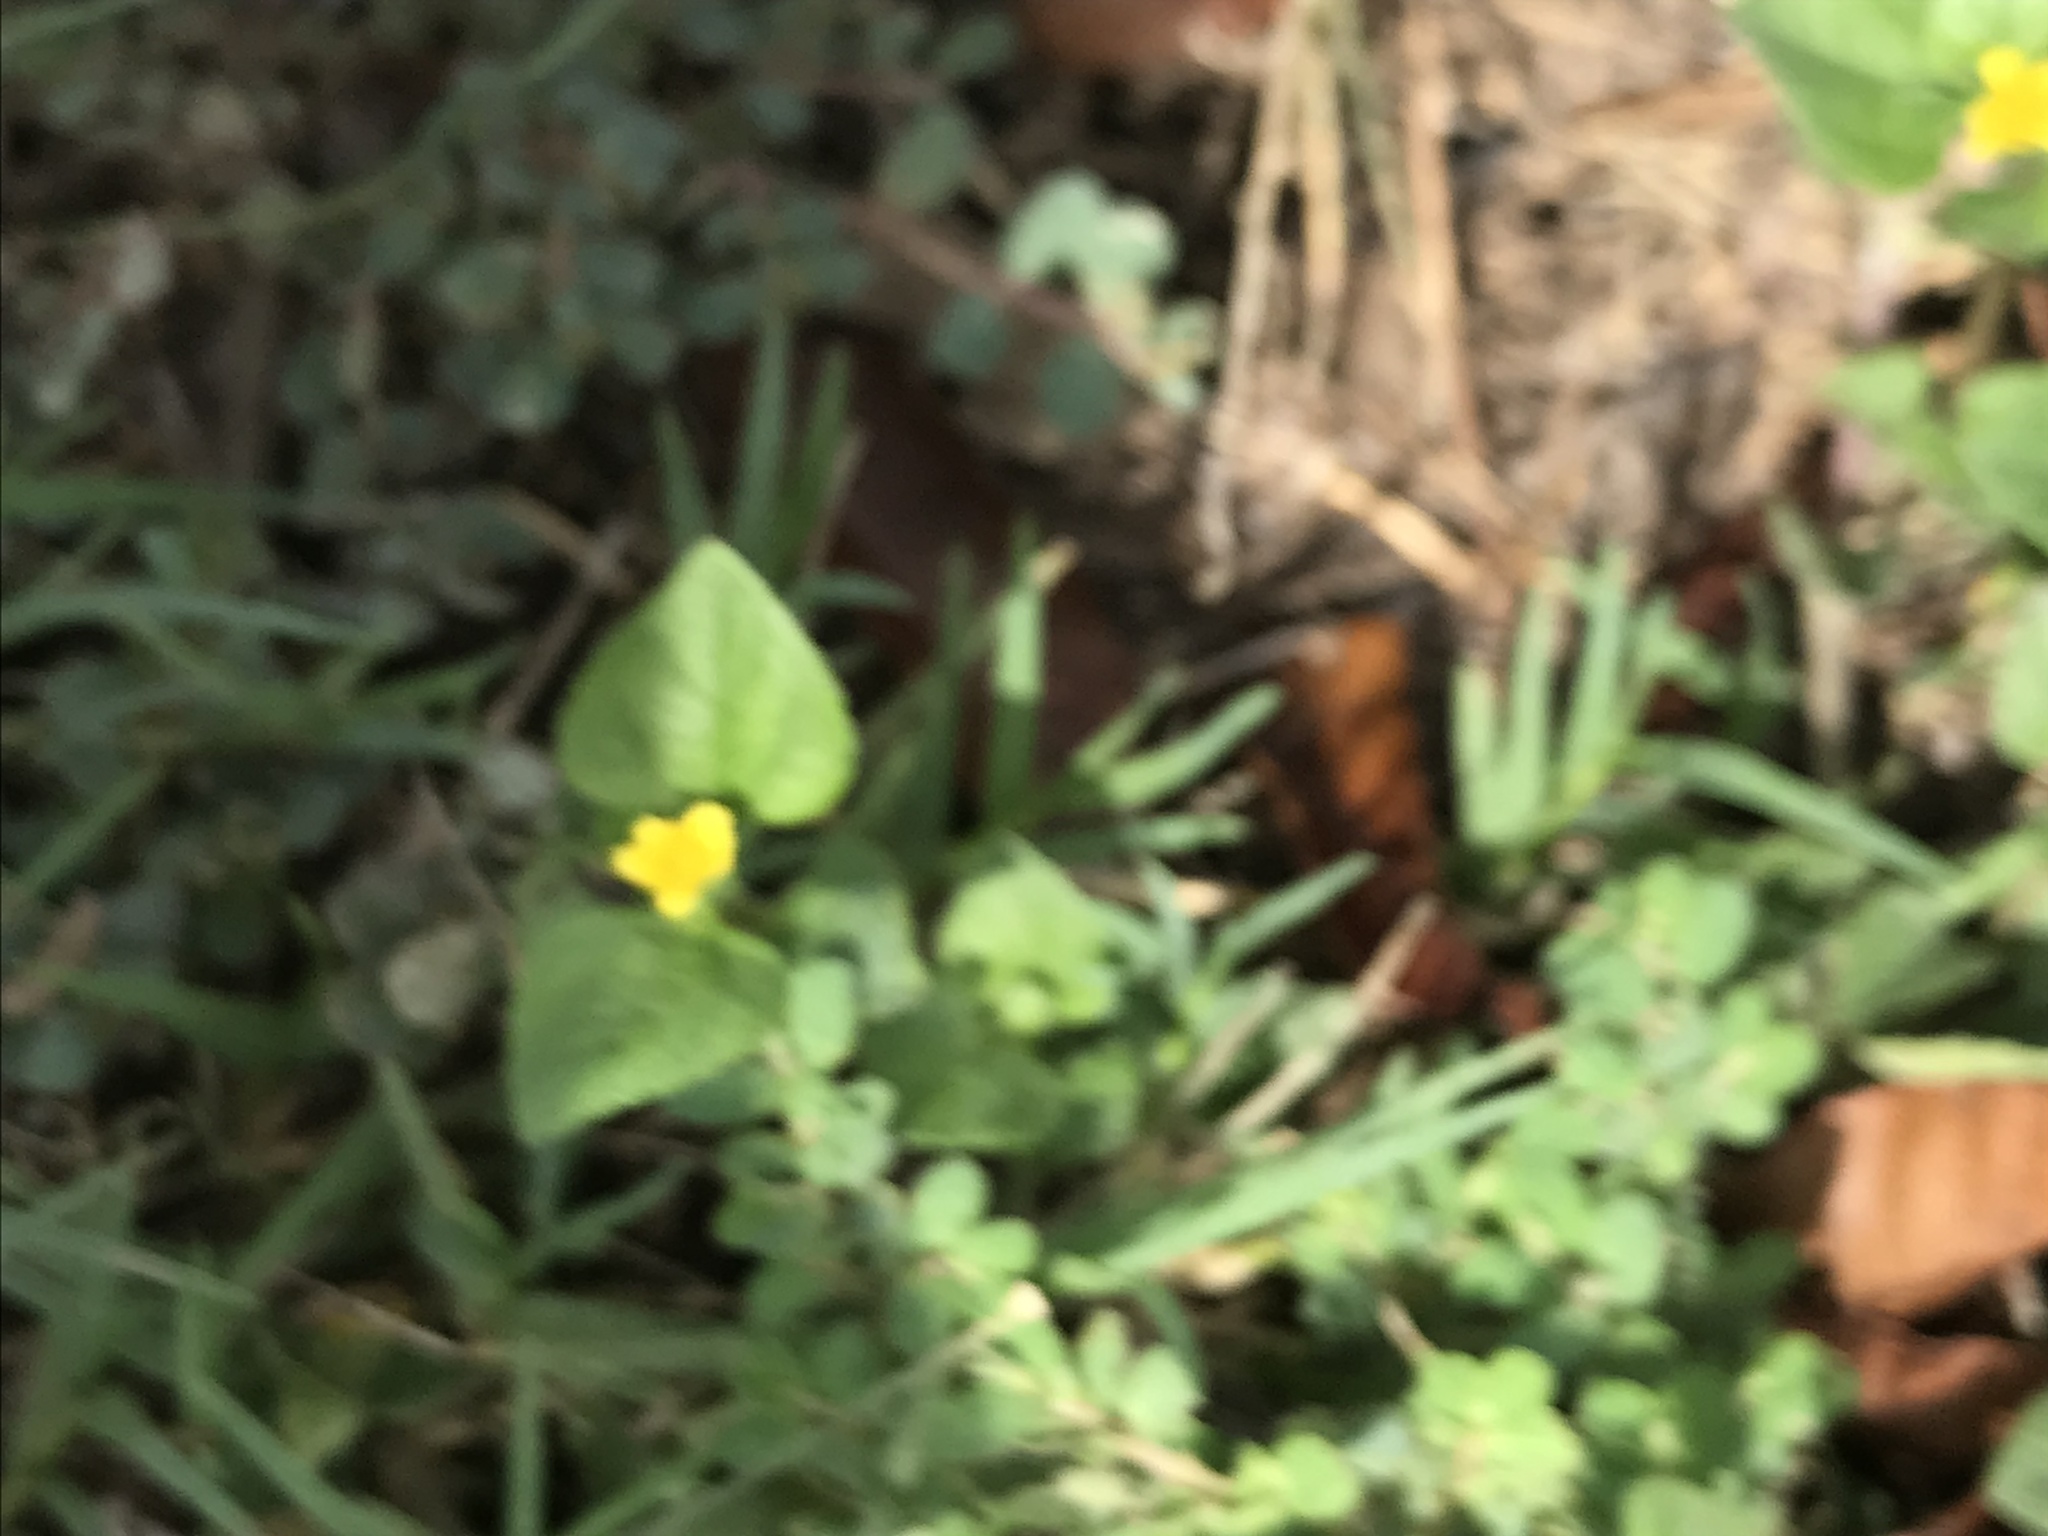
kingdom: Plantae
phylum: Tracheophyta
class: Magnoliopsida
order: Asterales
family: Asteraceae
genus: Calyptocarpus
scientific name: Calyptocarpus vialis
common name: Straggler daisy
